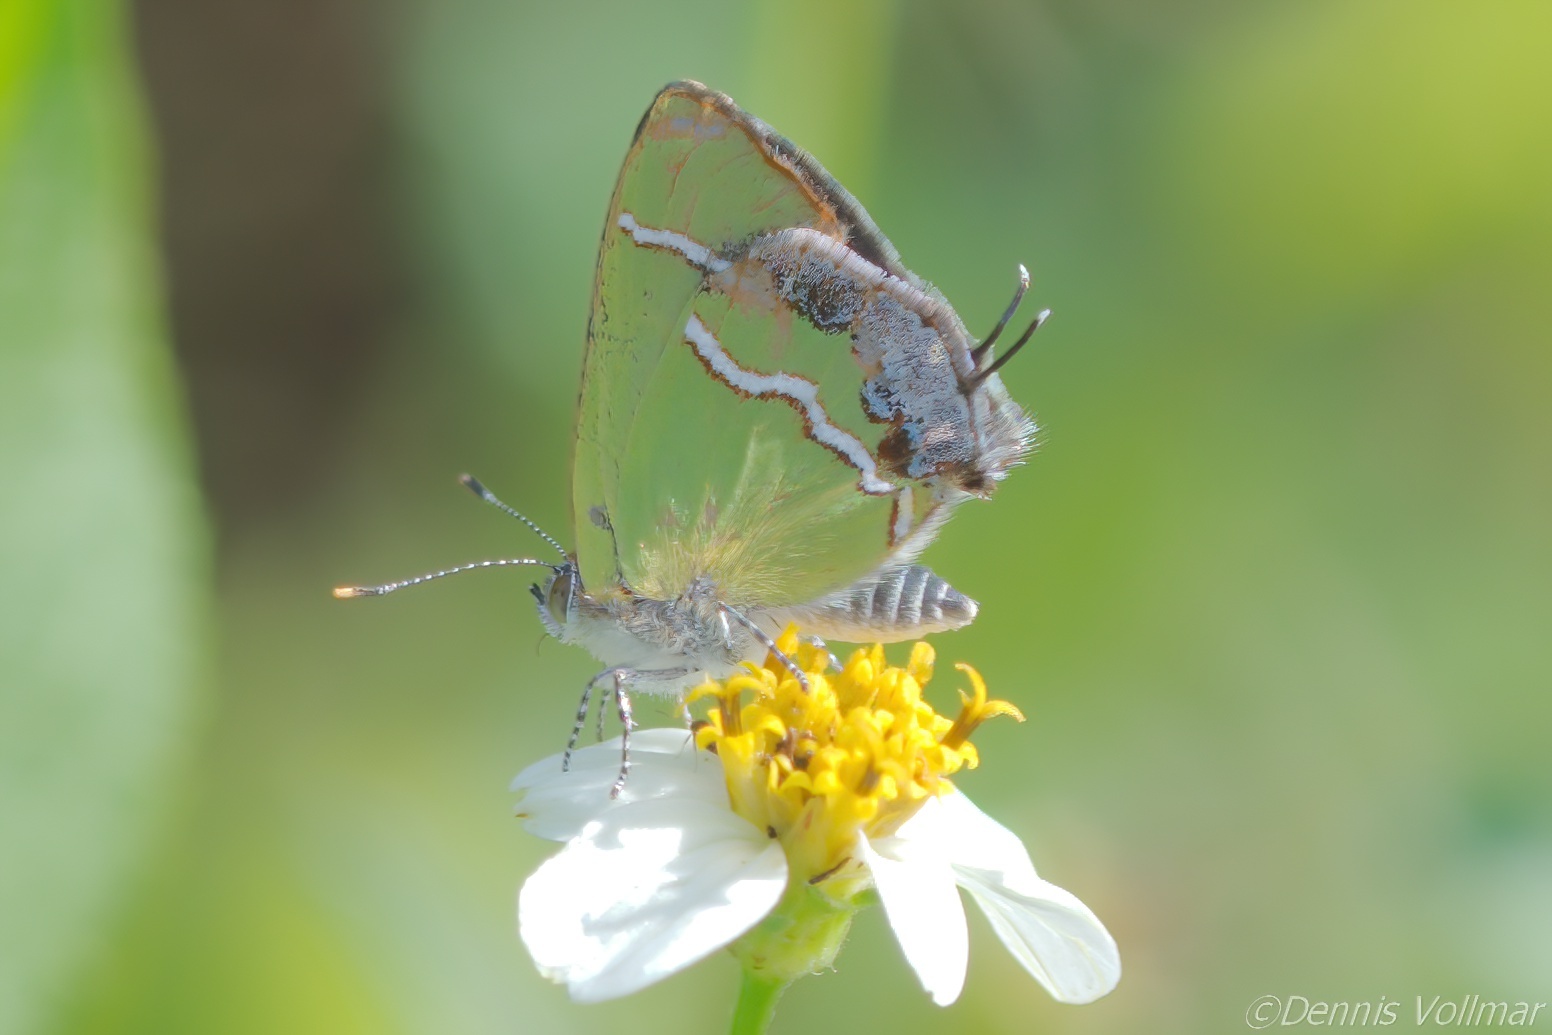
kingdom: Animalia
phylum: Arthropoda
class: Insecta
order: Lepidoptera
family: Lycaenidae
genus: Chlorostrymon
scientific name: Chlorostrymon simaethis
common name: Silver-banded hairstreak
